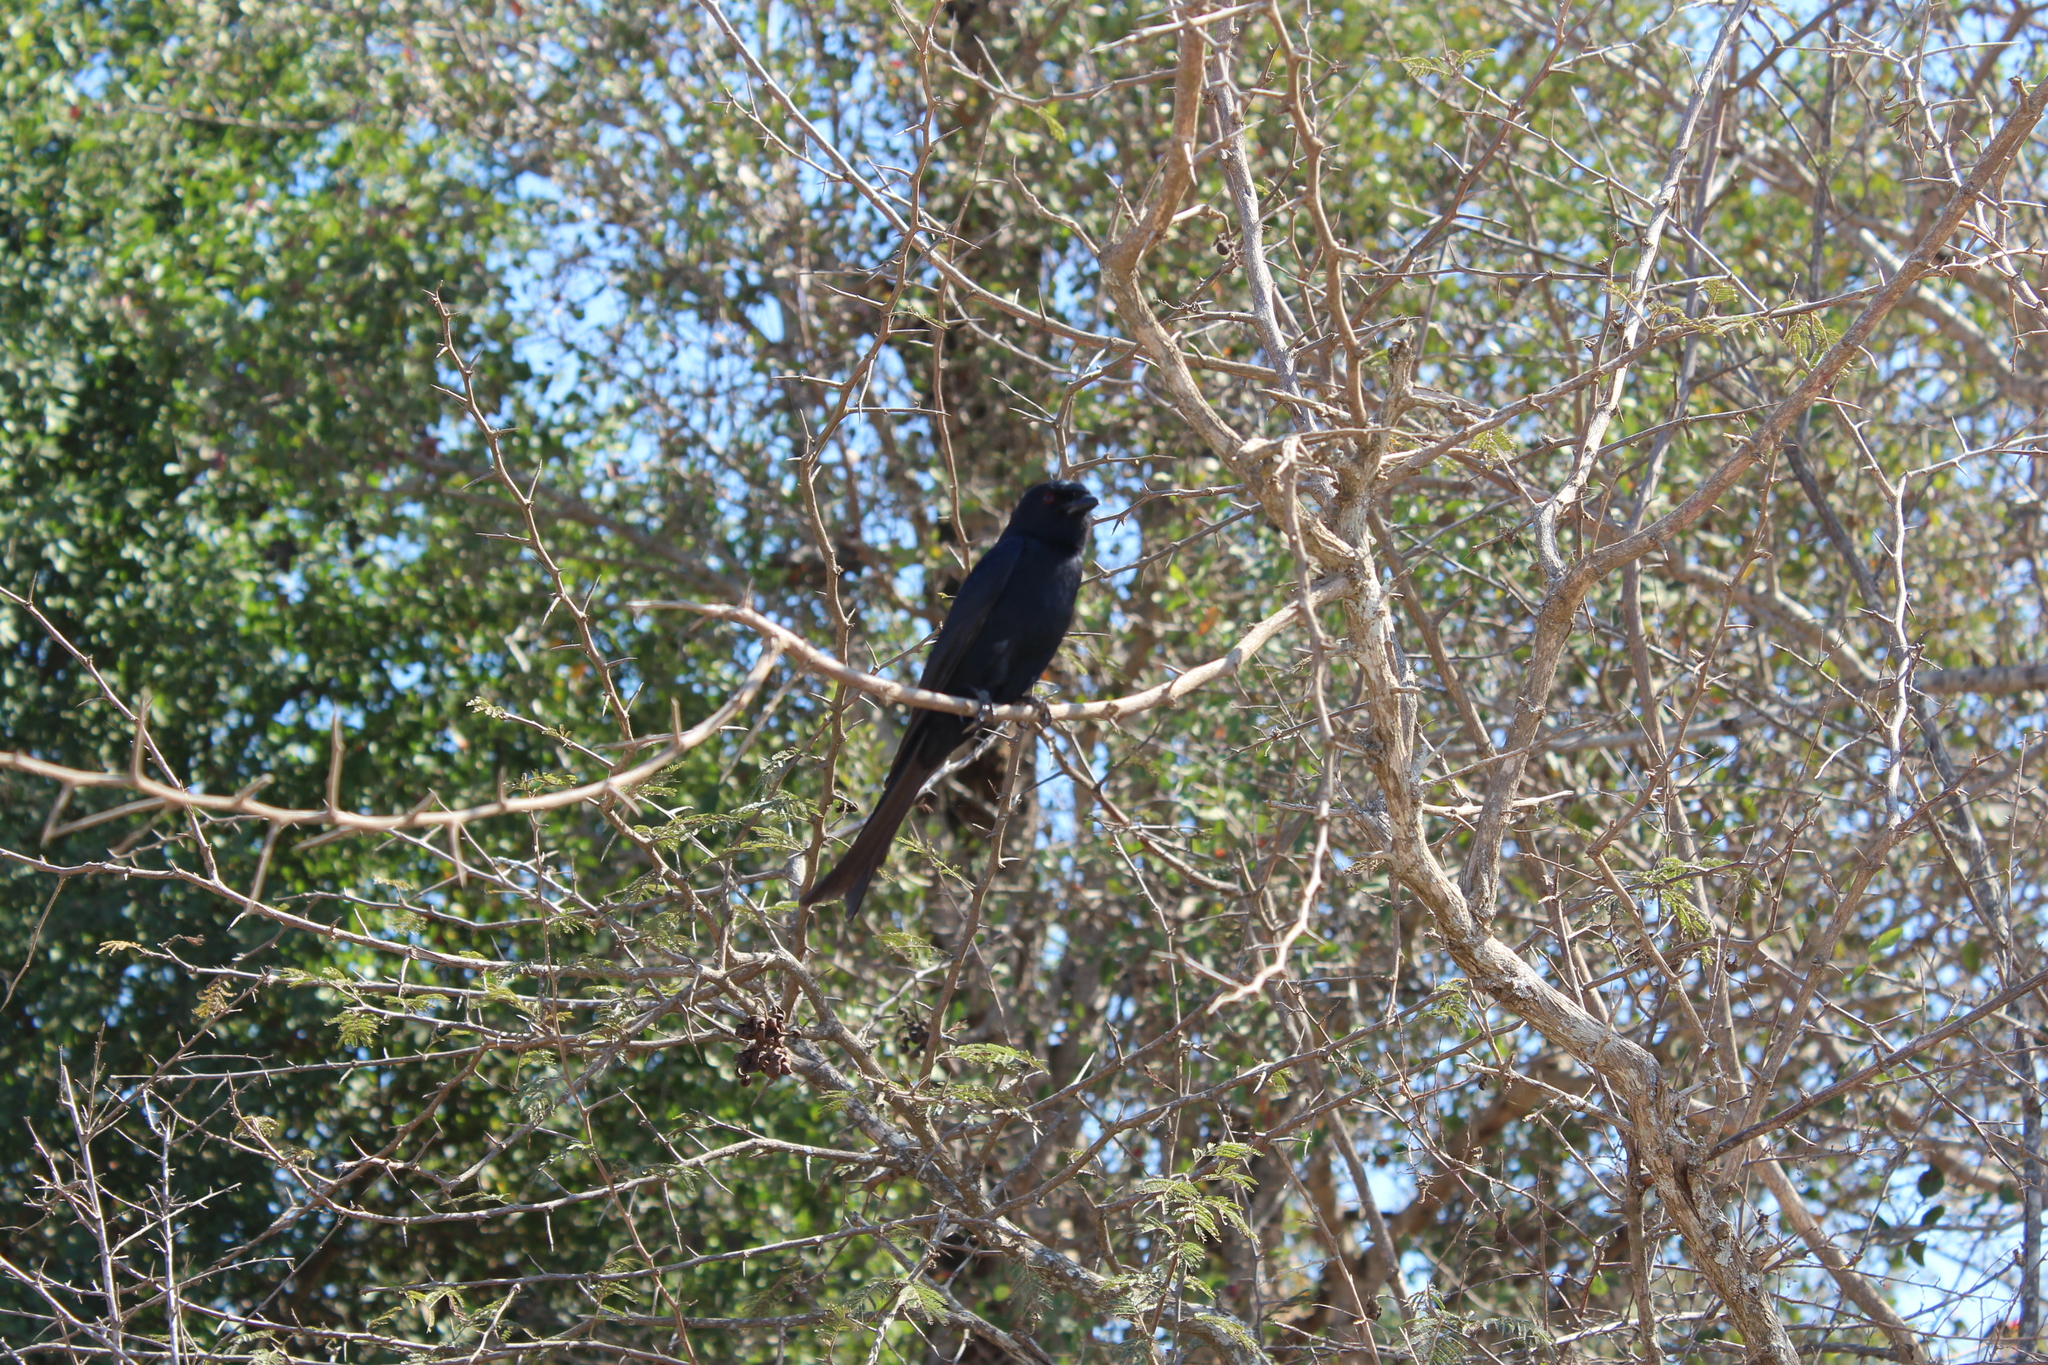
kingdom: Animalia
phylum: Chordata
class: Aves
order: Passeriformes
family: Dicruridae
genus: Dicrurus
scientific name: Dicrurus adsimilis
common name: Fork-tailed drongo
